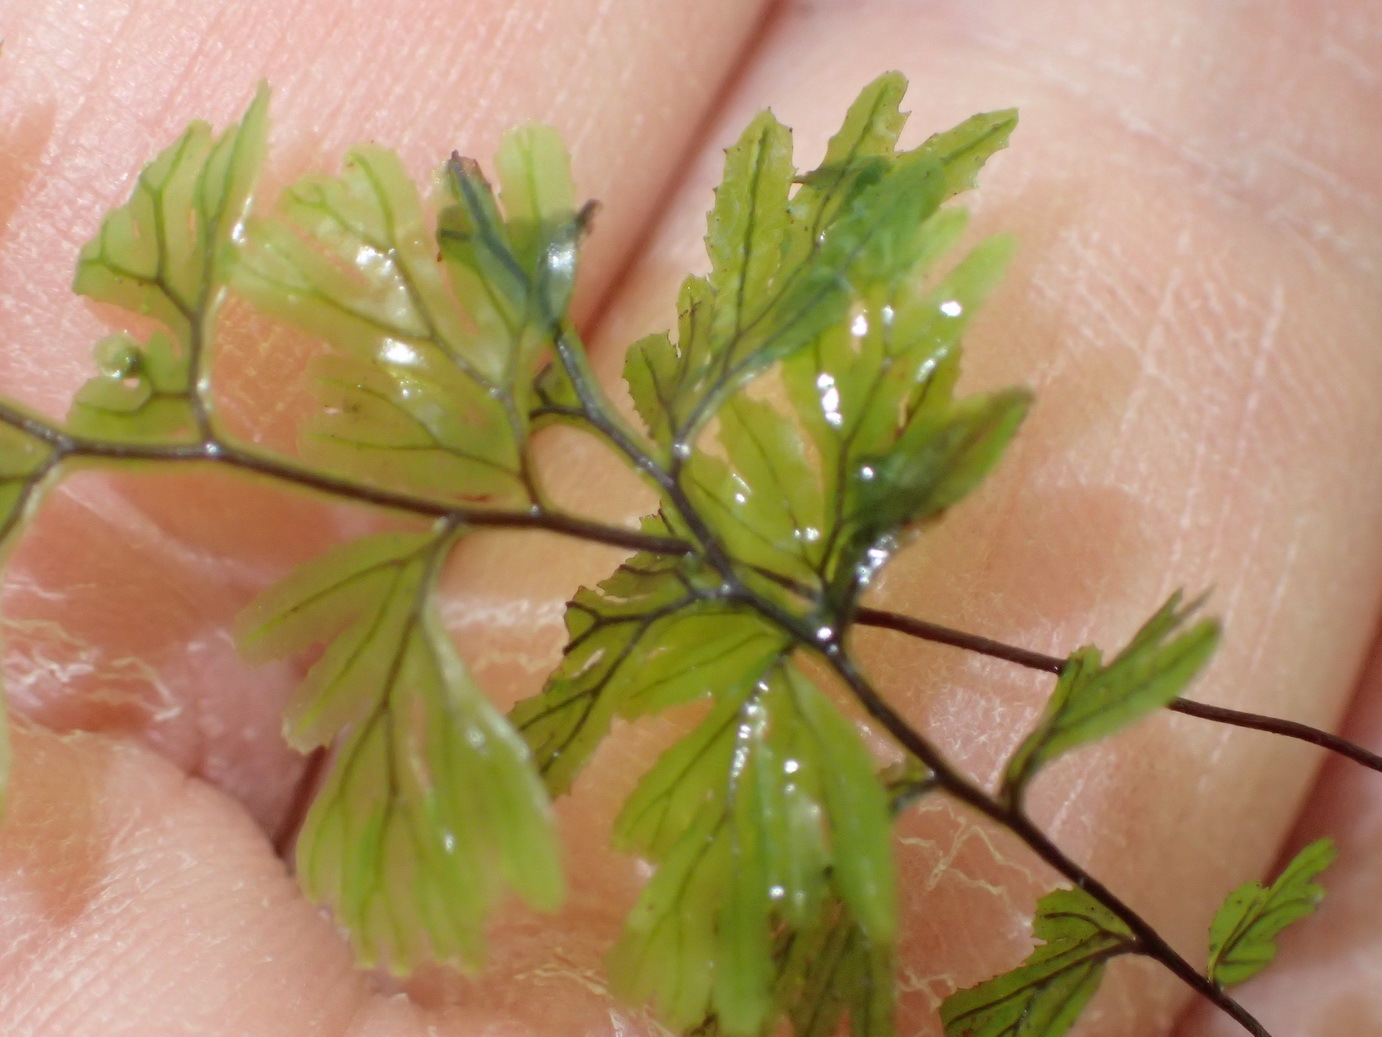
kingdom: Plantae
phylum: Tracheophyta
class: Polypodiopsida
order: Hymenophyllales
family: Hymenophyllaceae
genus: Hymenophyllum
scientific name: Hymenophyllum tunbrigense
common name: Tunbridge filmy fern
